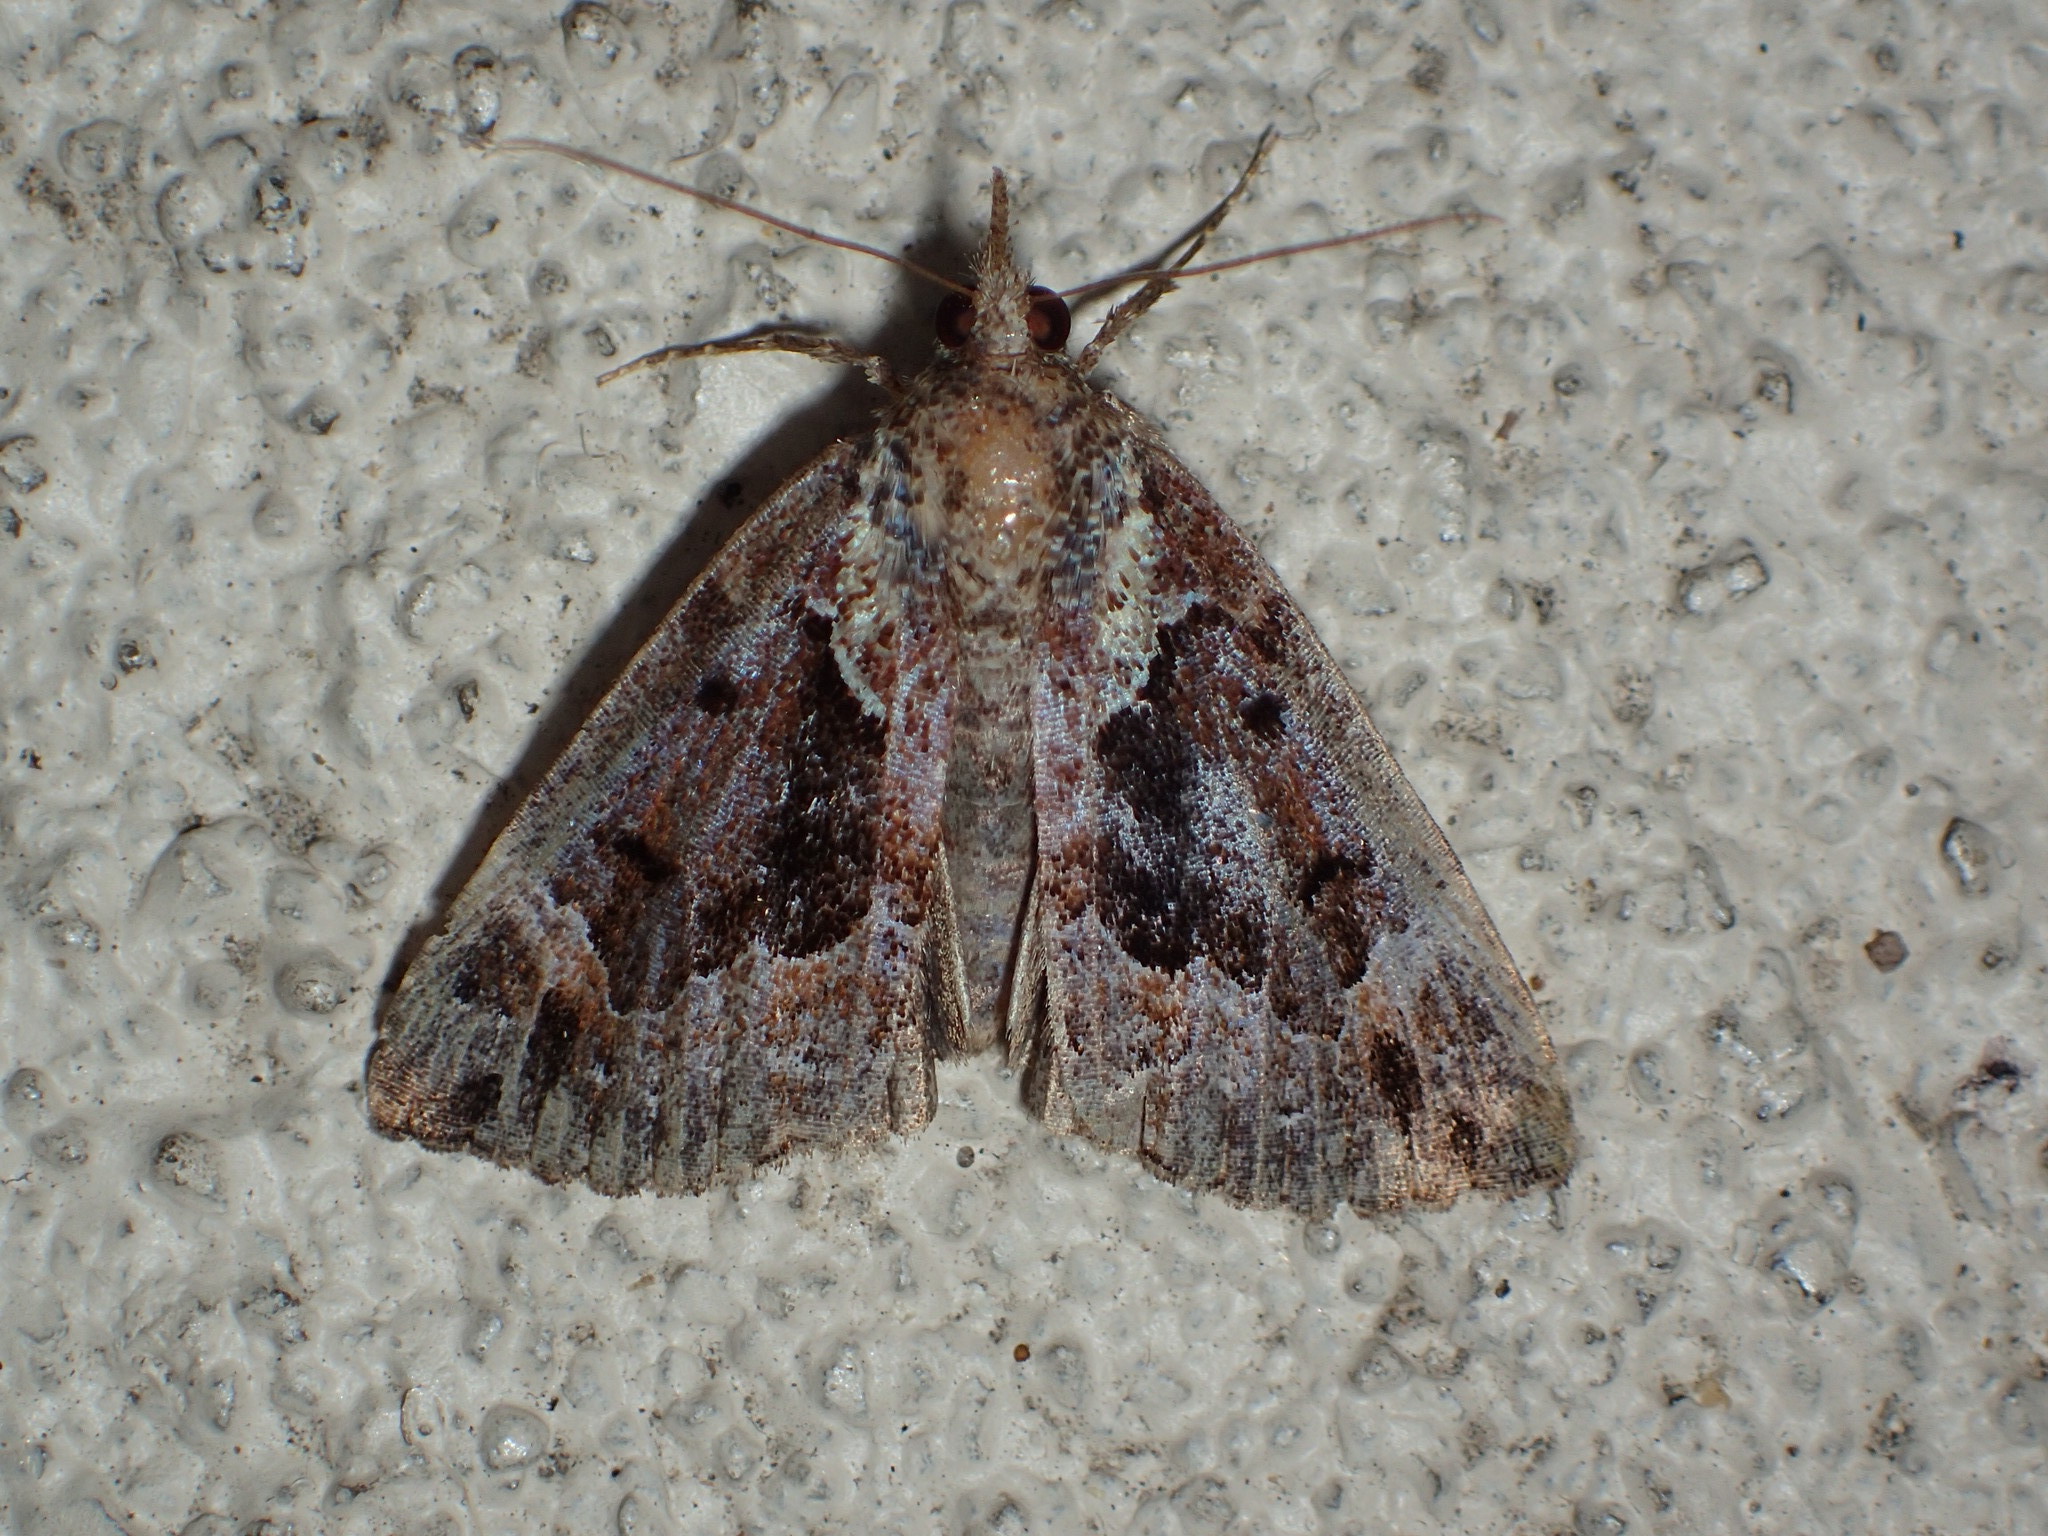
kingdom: Animalia
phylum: Arthropoda
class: Insecta
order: Lepidoptera
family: Erebidae
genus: Hypena
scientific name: Hypena palparia
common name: Mottled bomolocha moth
